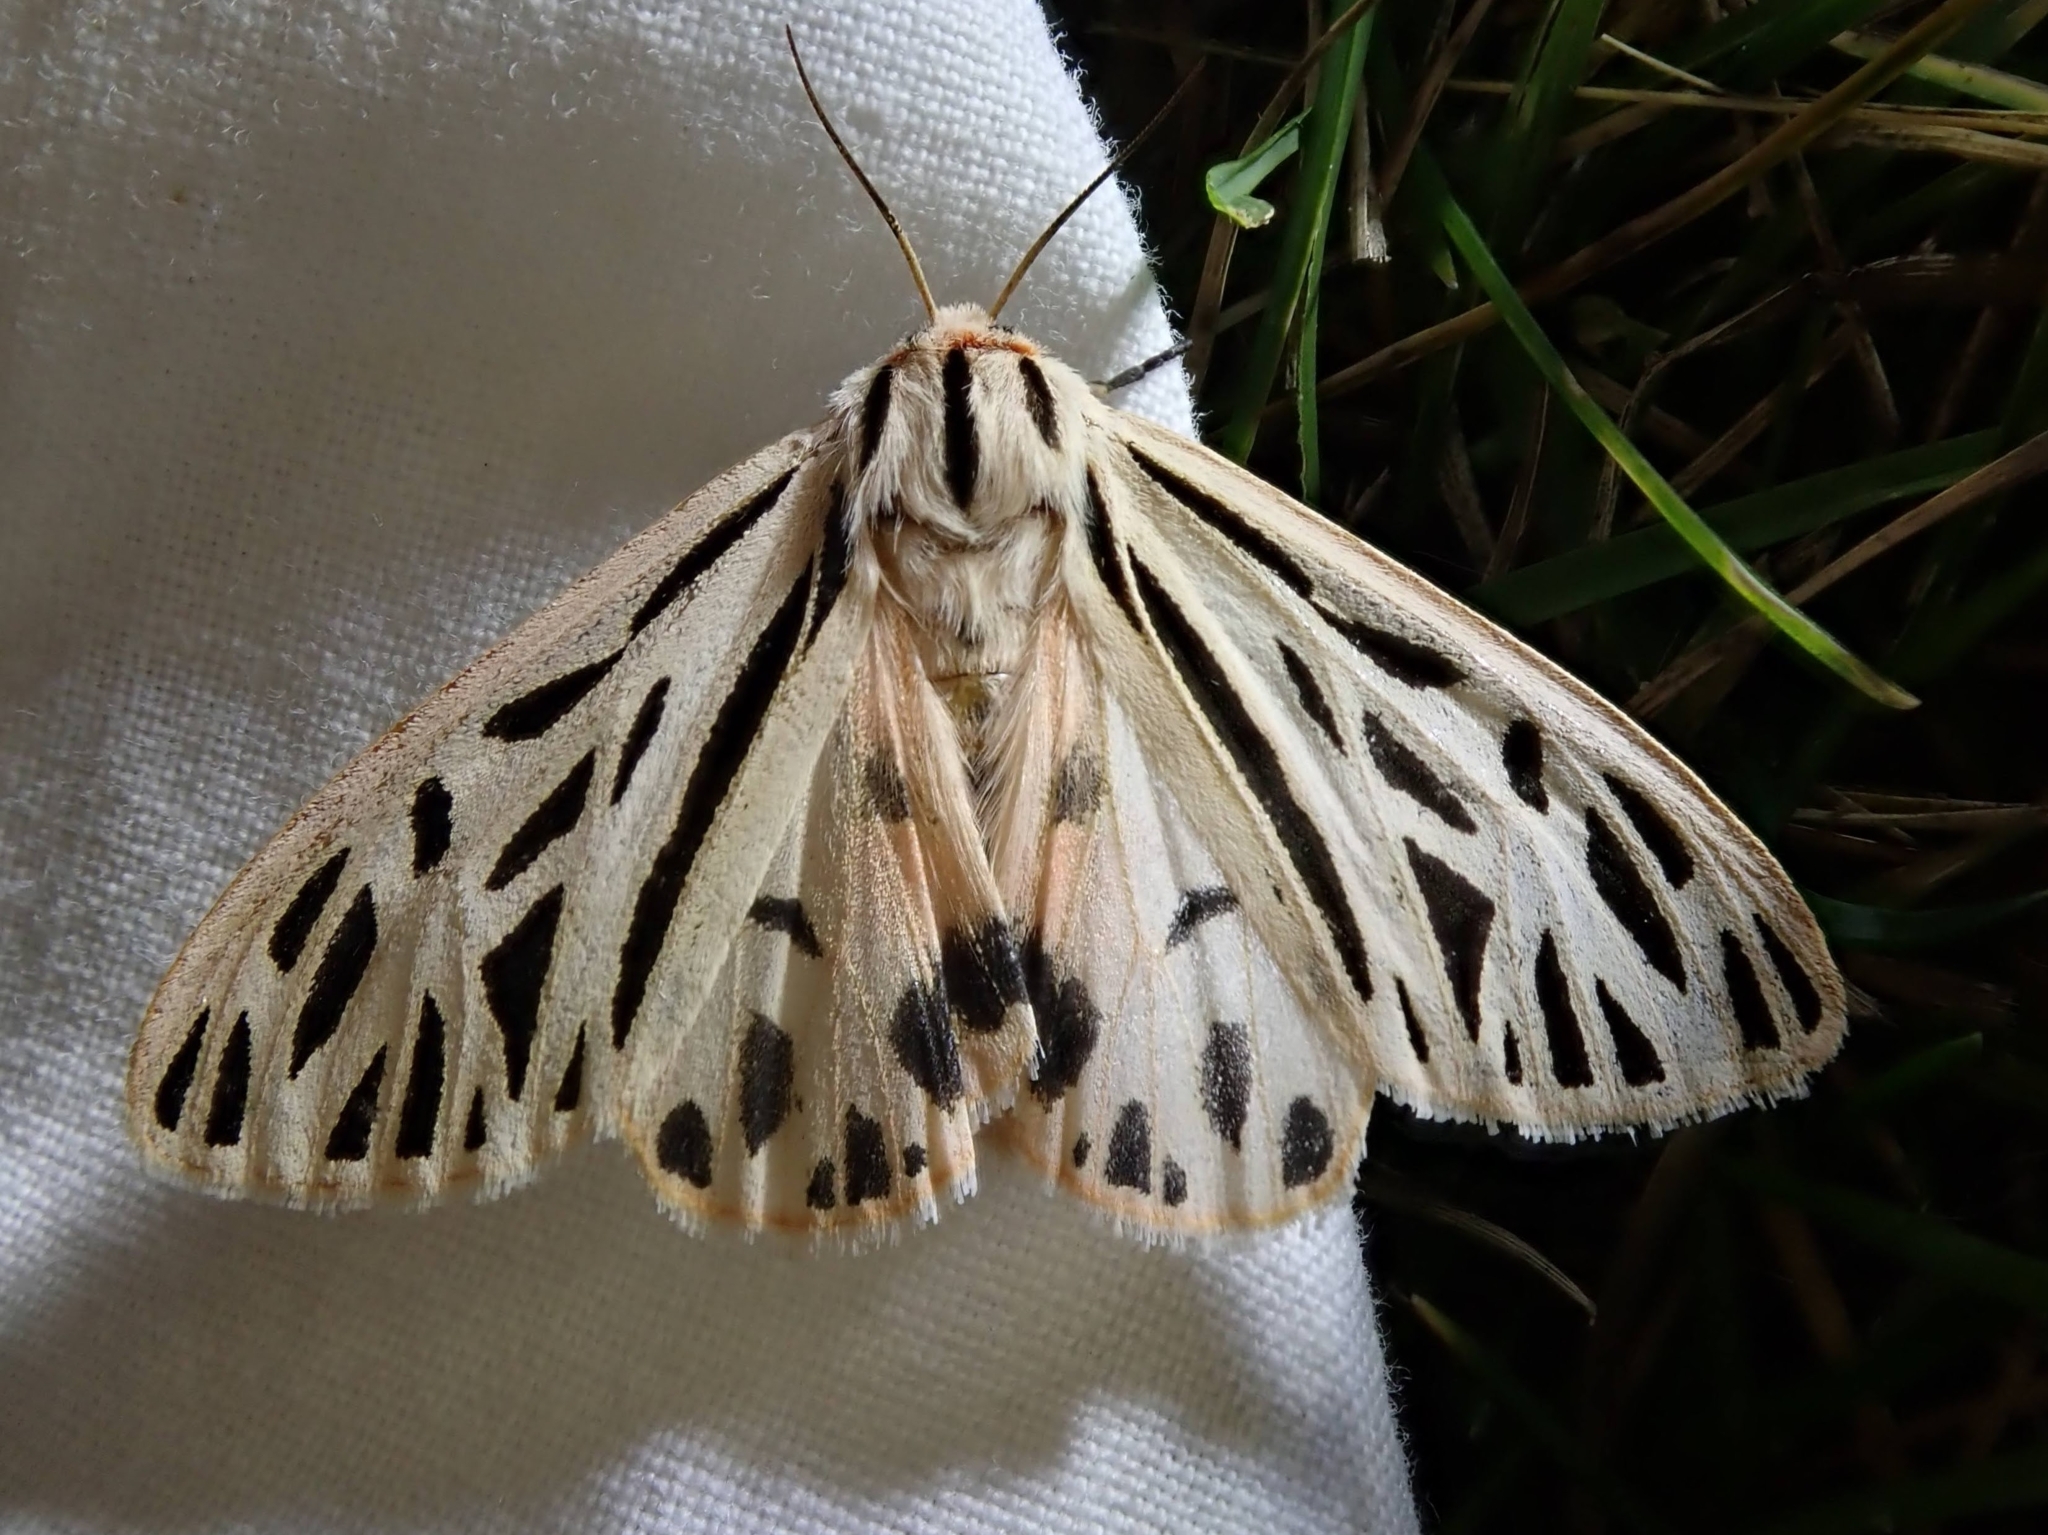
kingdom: Animalia
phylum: Arthropoda
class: Insecta
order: Lepidoptera
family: Erebidae
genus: Apantesis
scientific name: Apantesis arge
